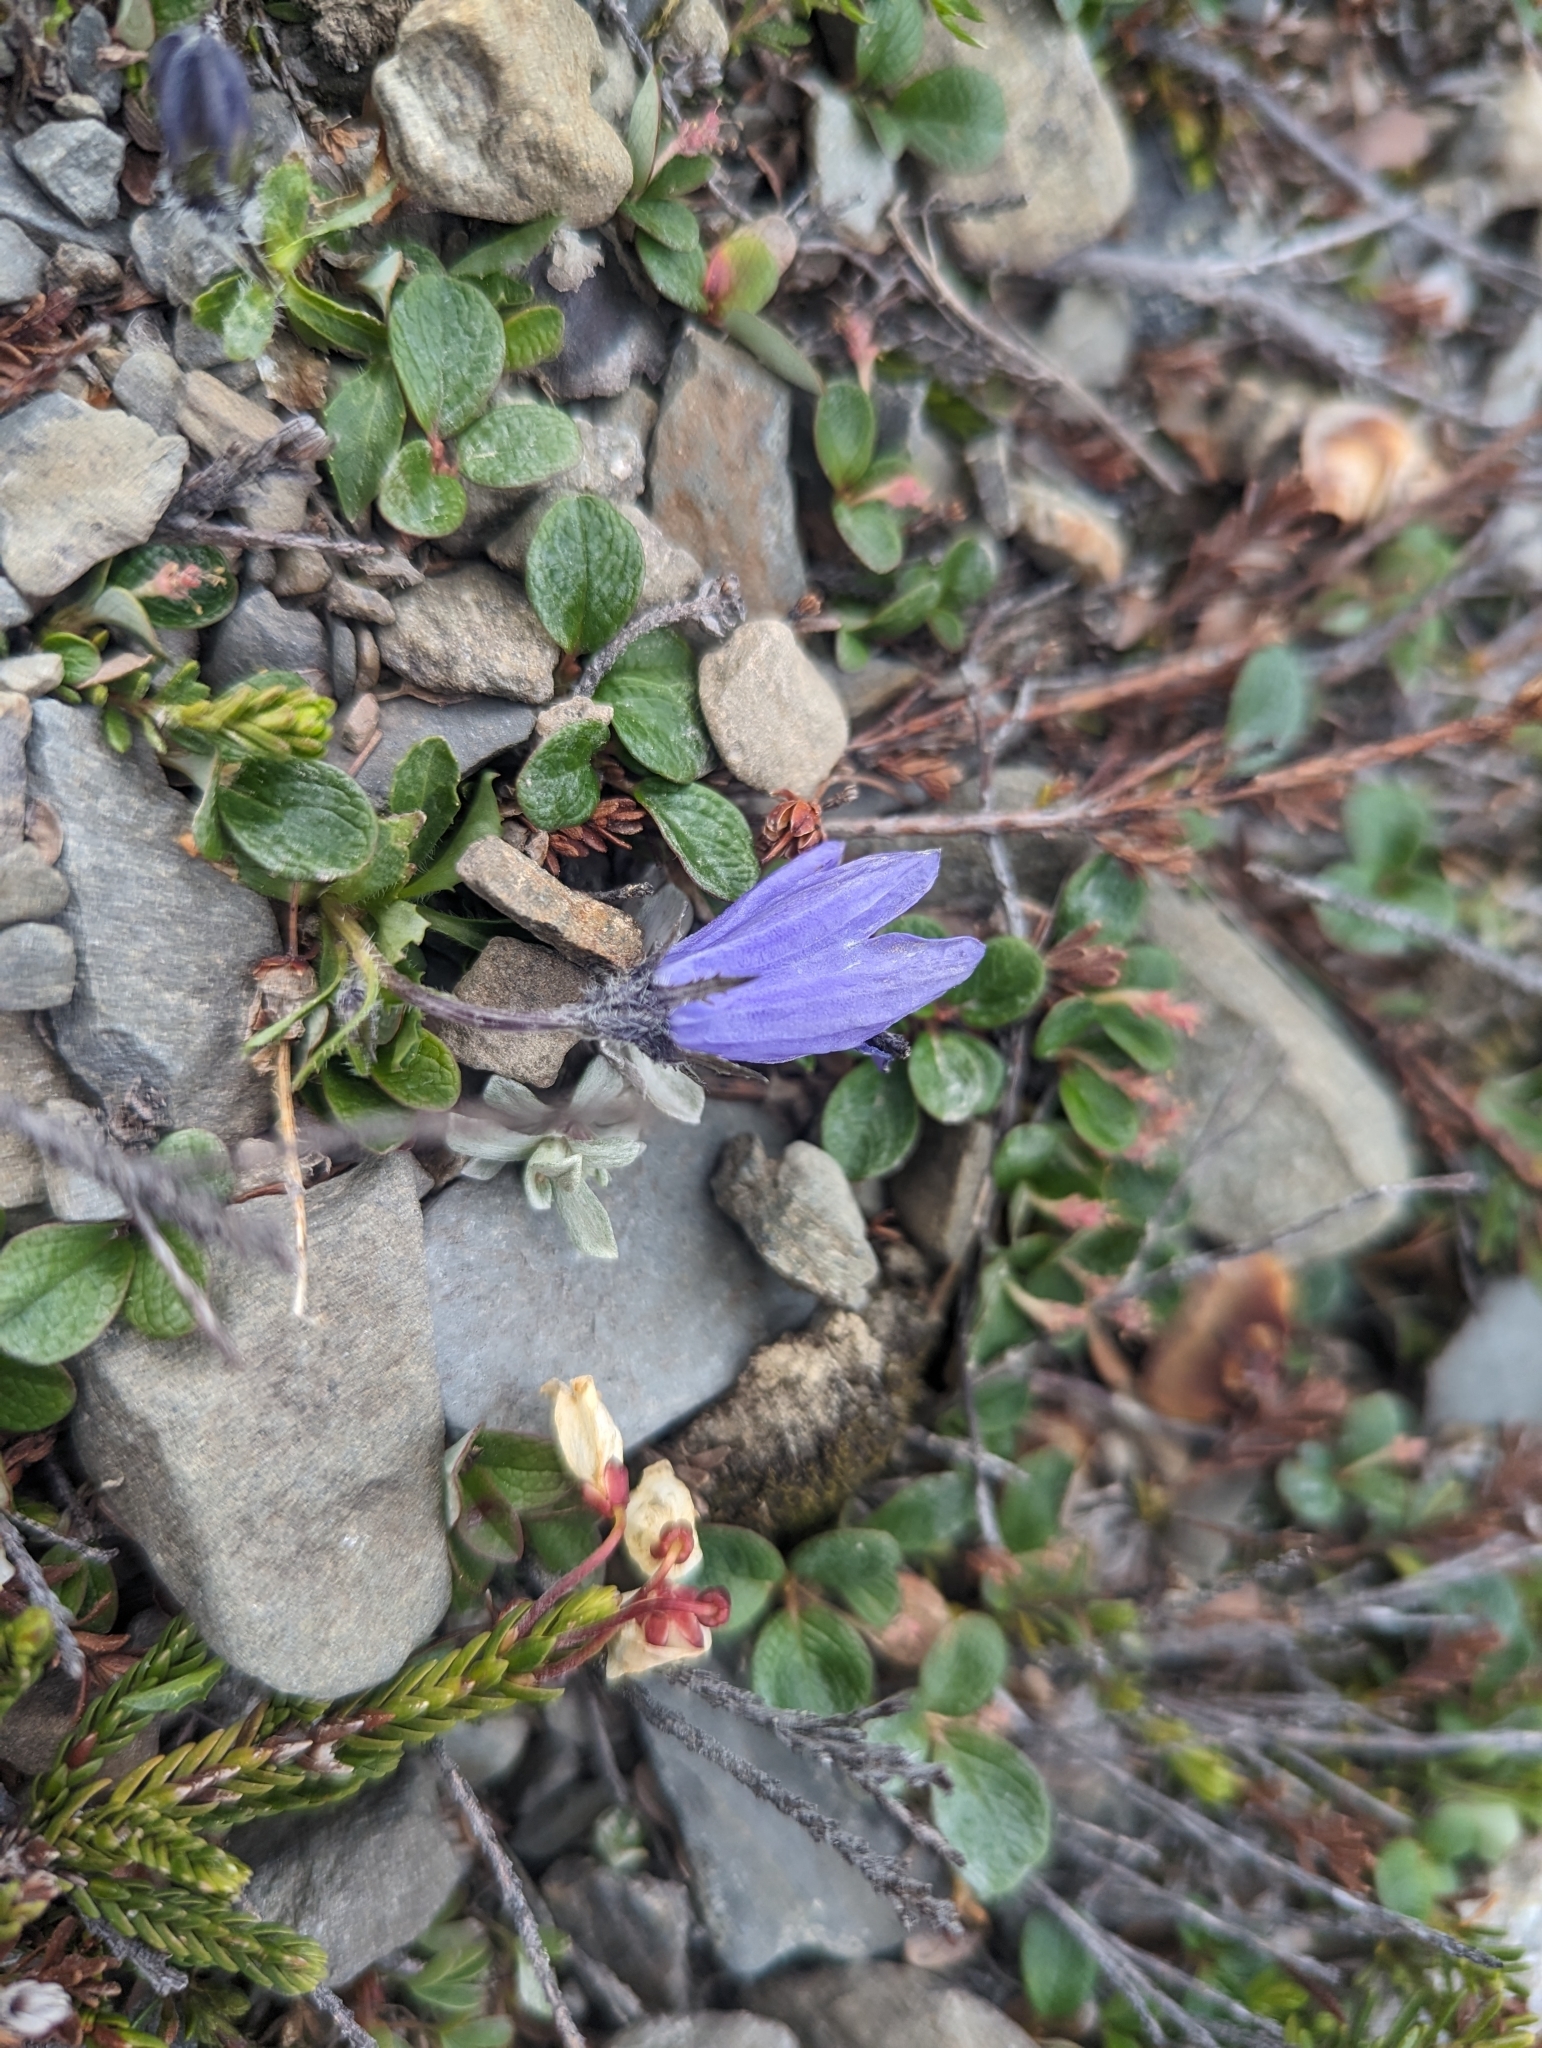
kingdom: Plantae
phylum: Tracheophyta
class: Magnoliopsida
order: Asterales
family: Campanulaceae
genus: Campanula
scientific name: Campanula lasiocarpa
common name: Mountain harebell
